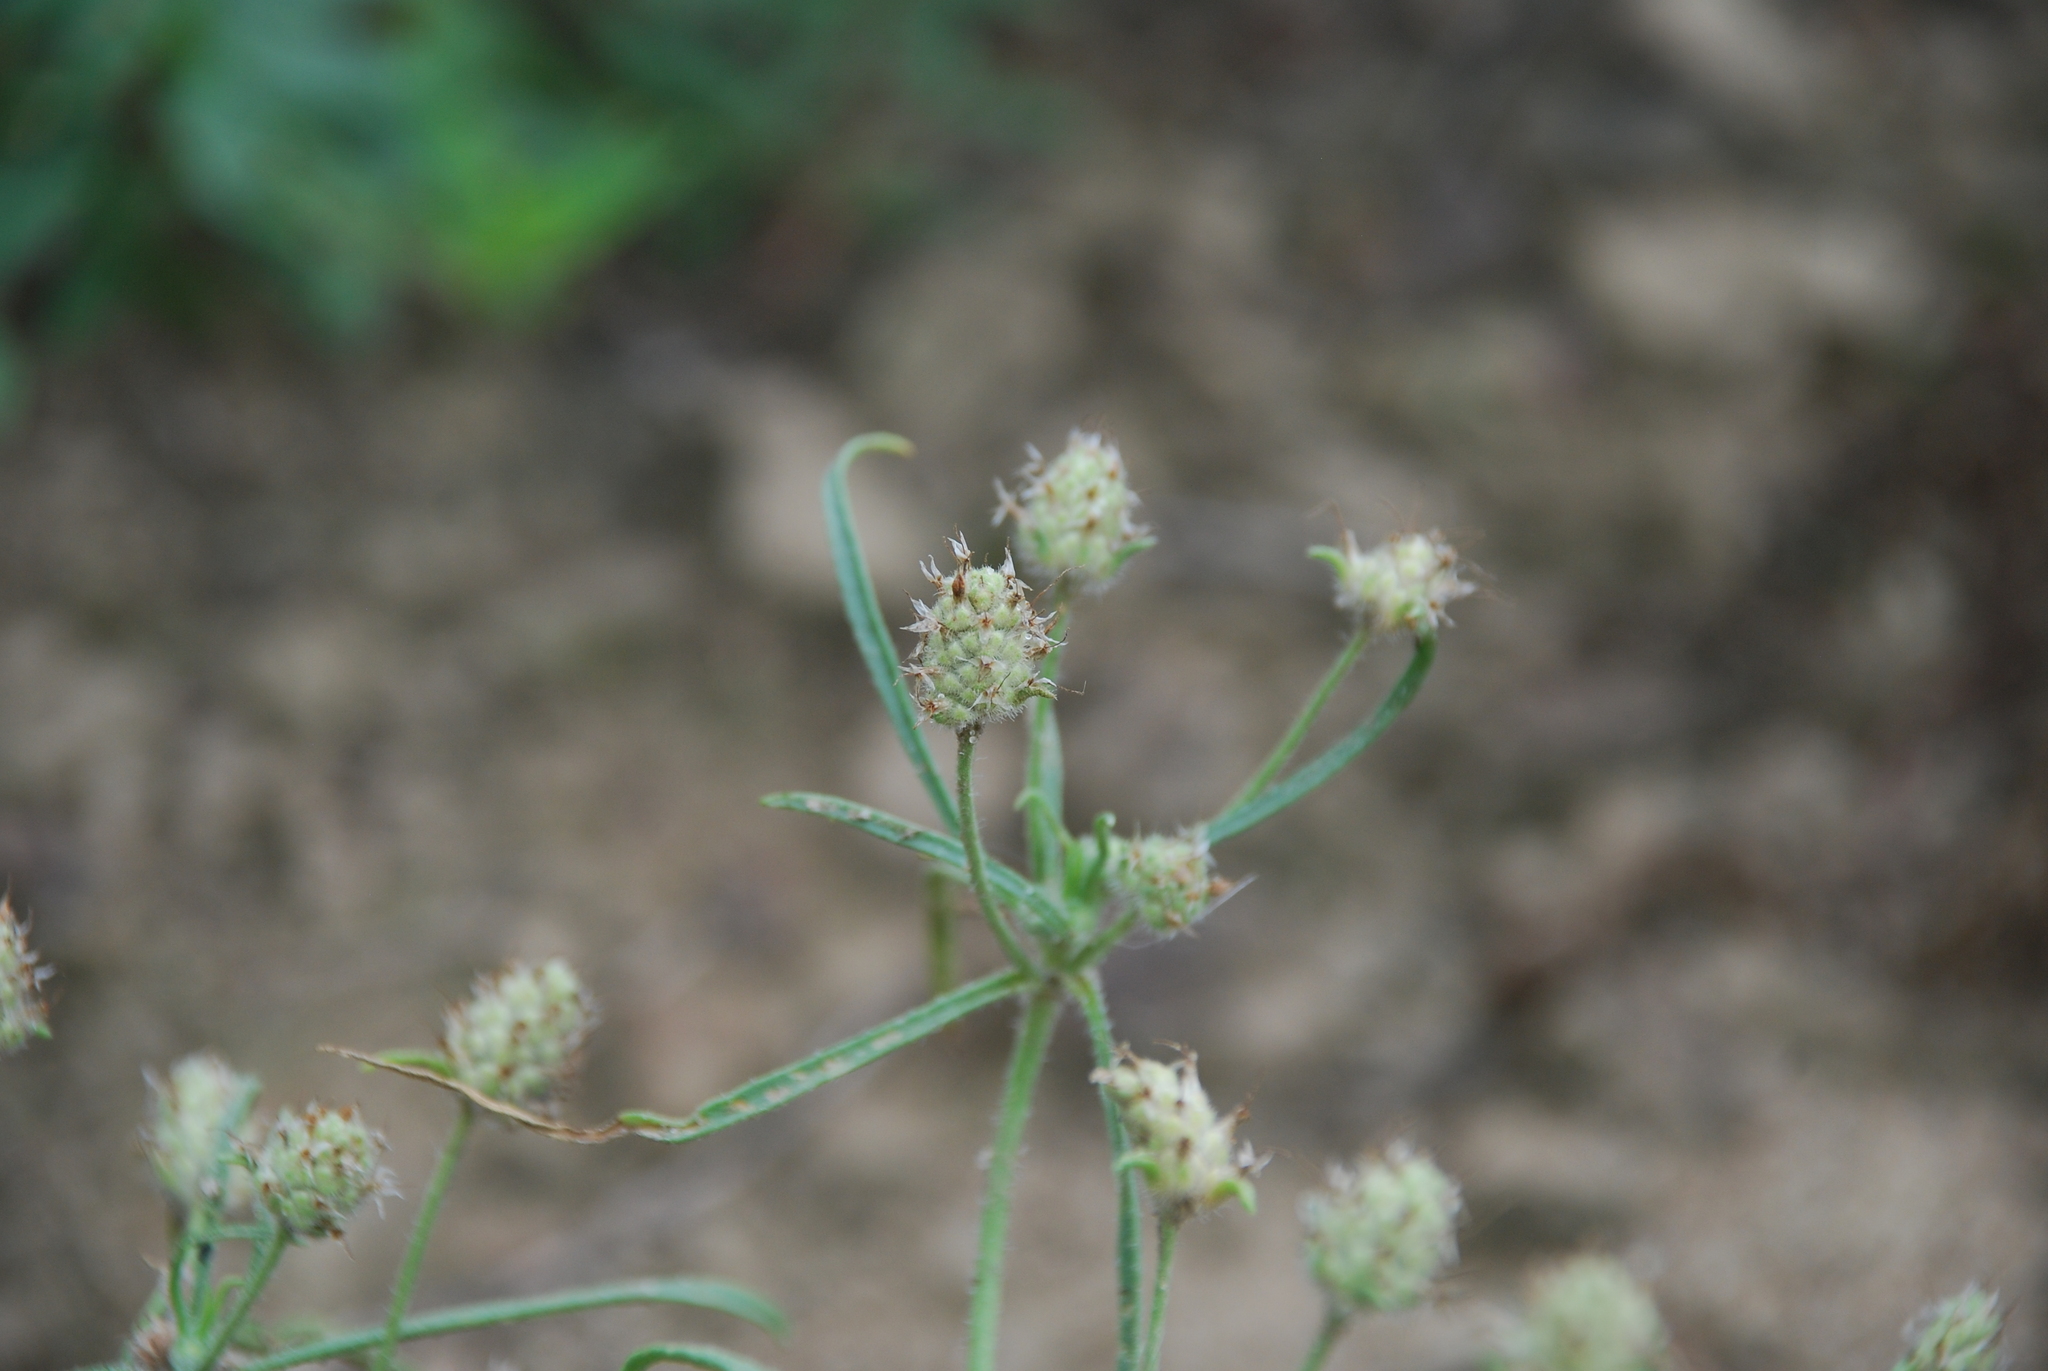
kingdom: Plantae
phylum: Tracheophyta
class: Magnoliopsida
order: Lamiales
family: Plantaginaceae
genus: Plantago
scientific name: Plantago arenaria
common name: Branched plantain
